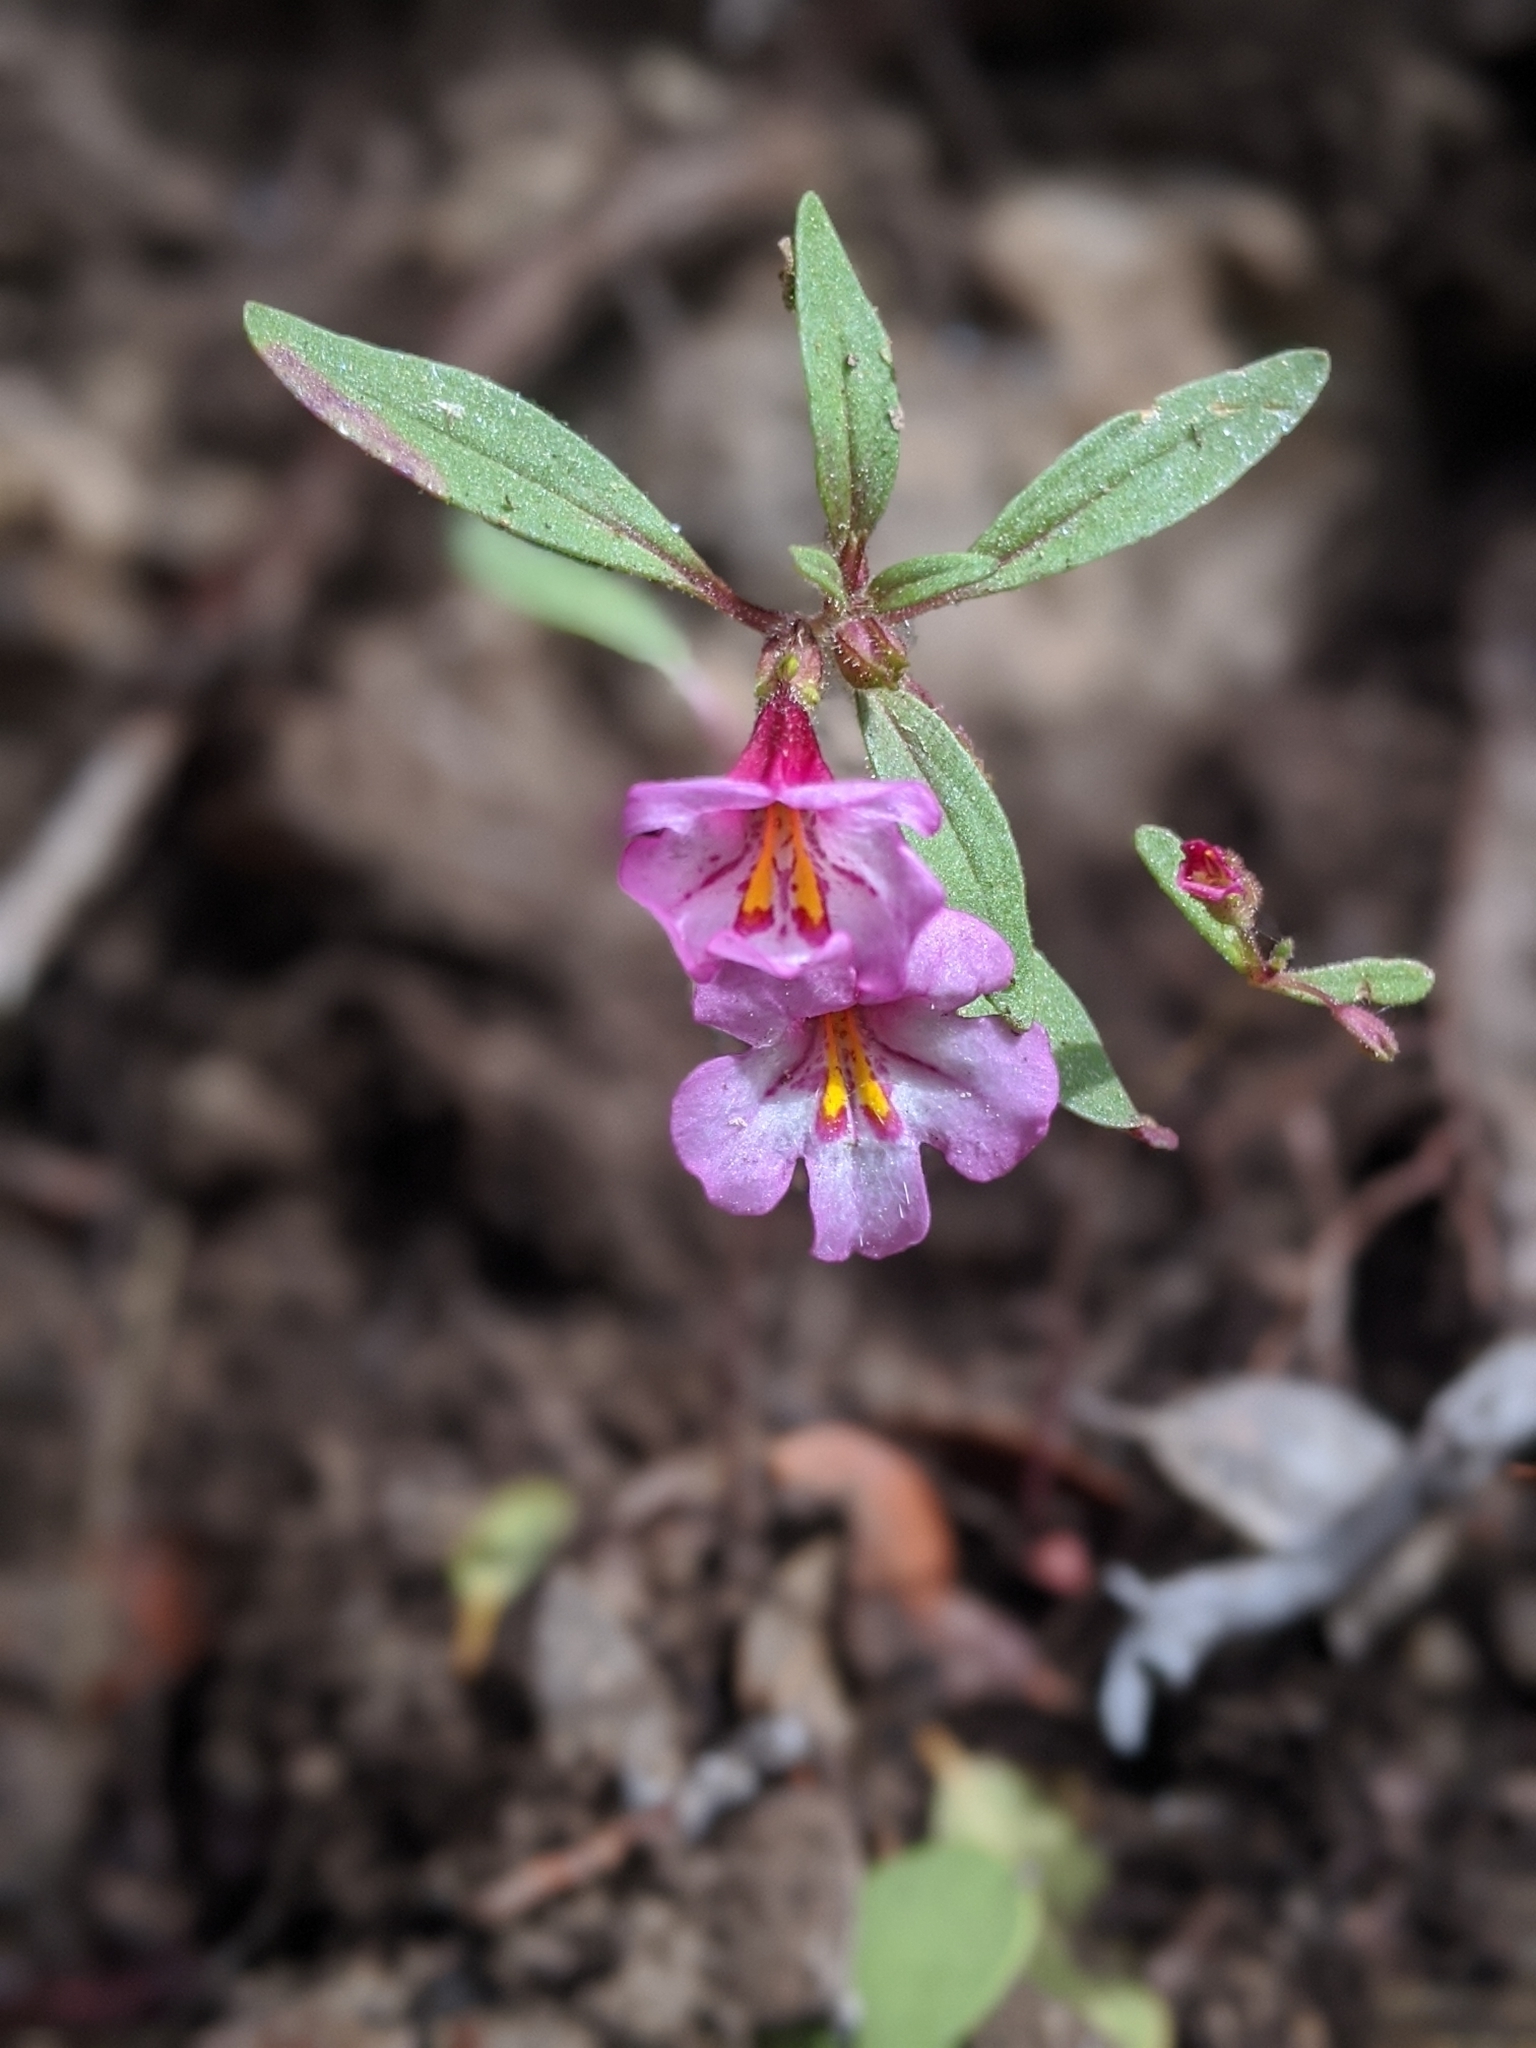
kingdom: Plantae
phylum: Tracheophyta
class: Magnoliopsida
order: Lamiales
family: Phrymaceae
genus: Diplacus
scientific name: Diplacus torreyi
